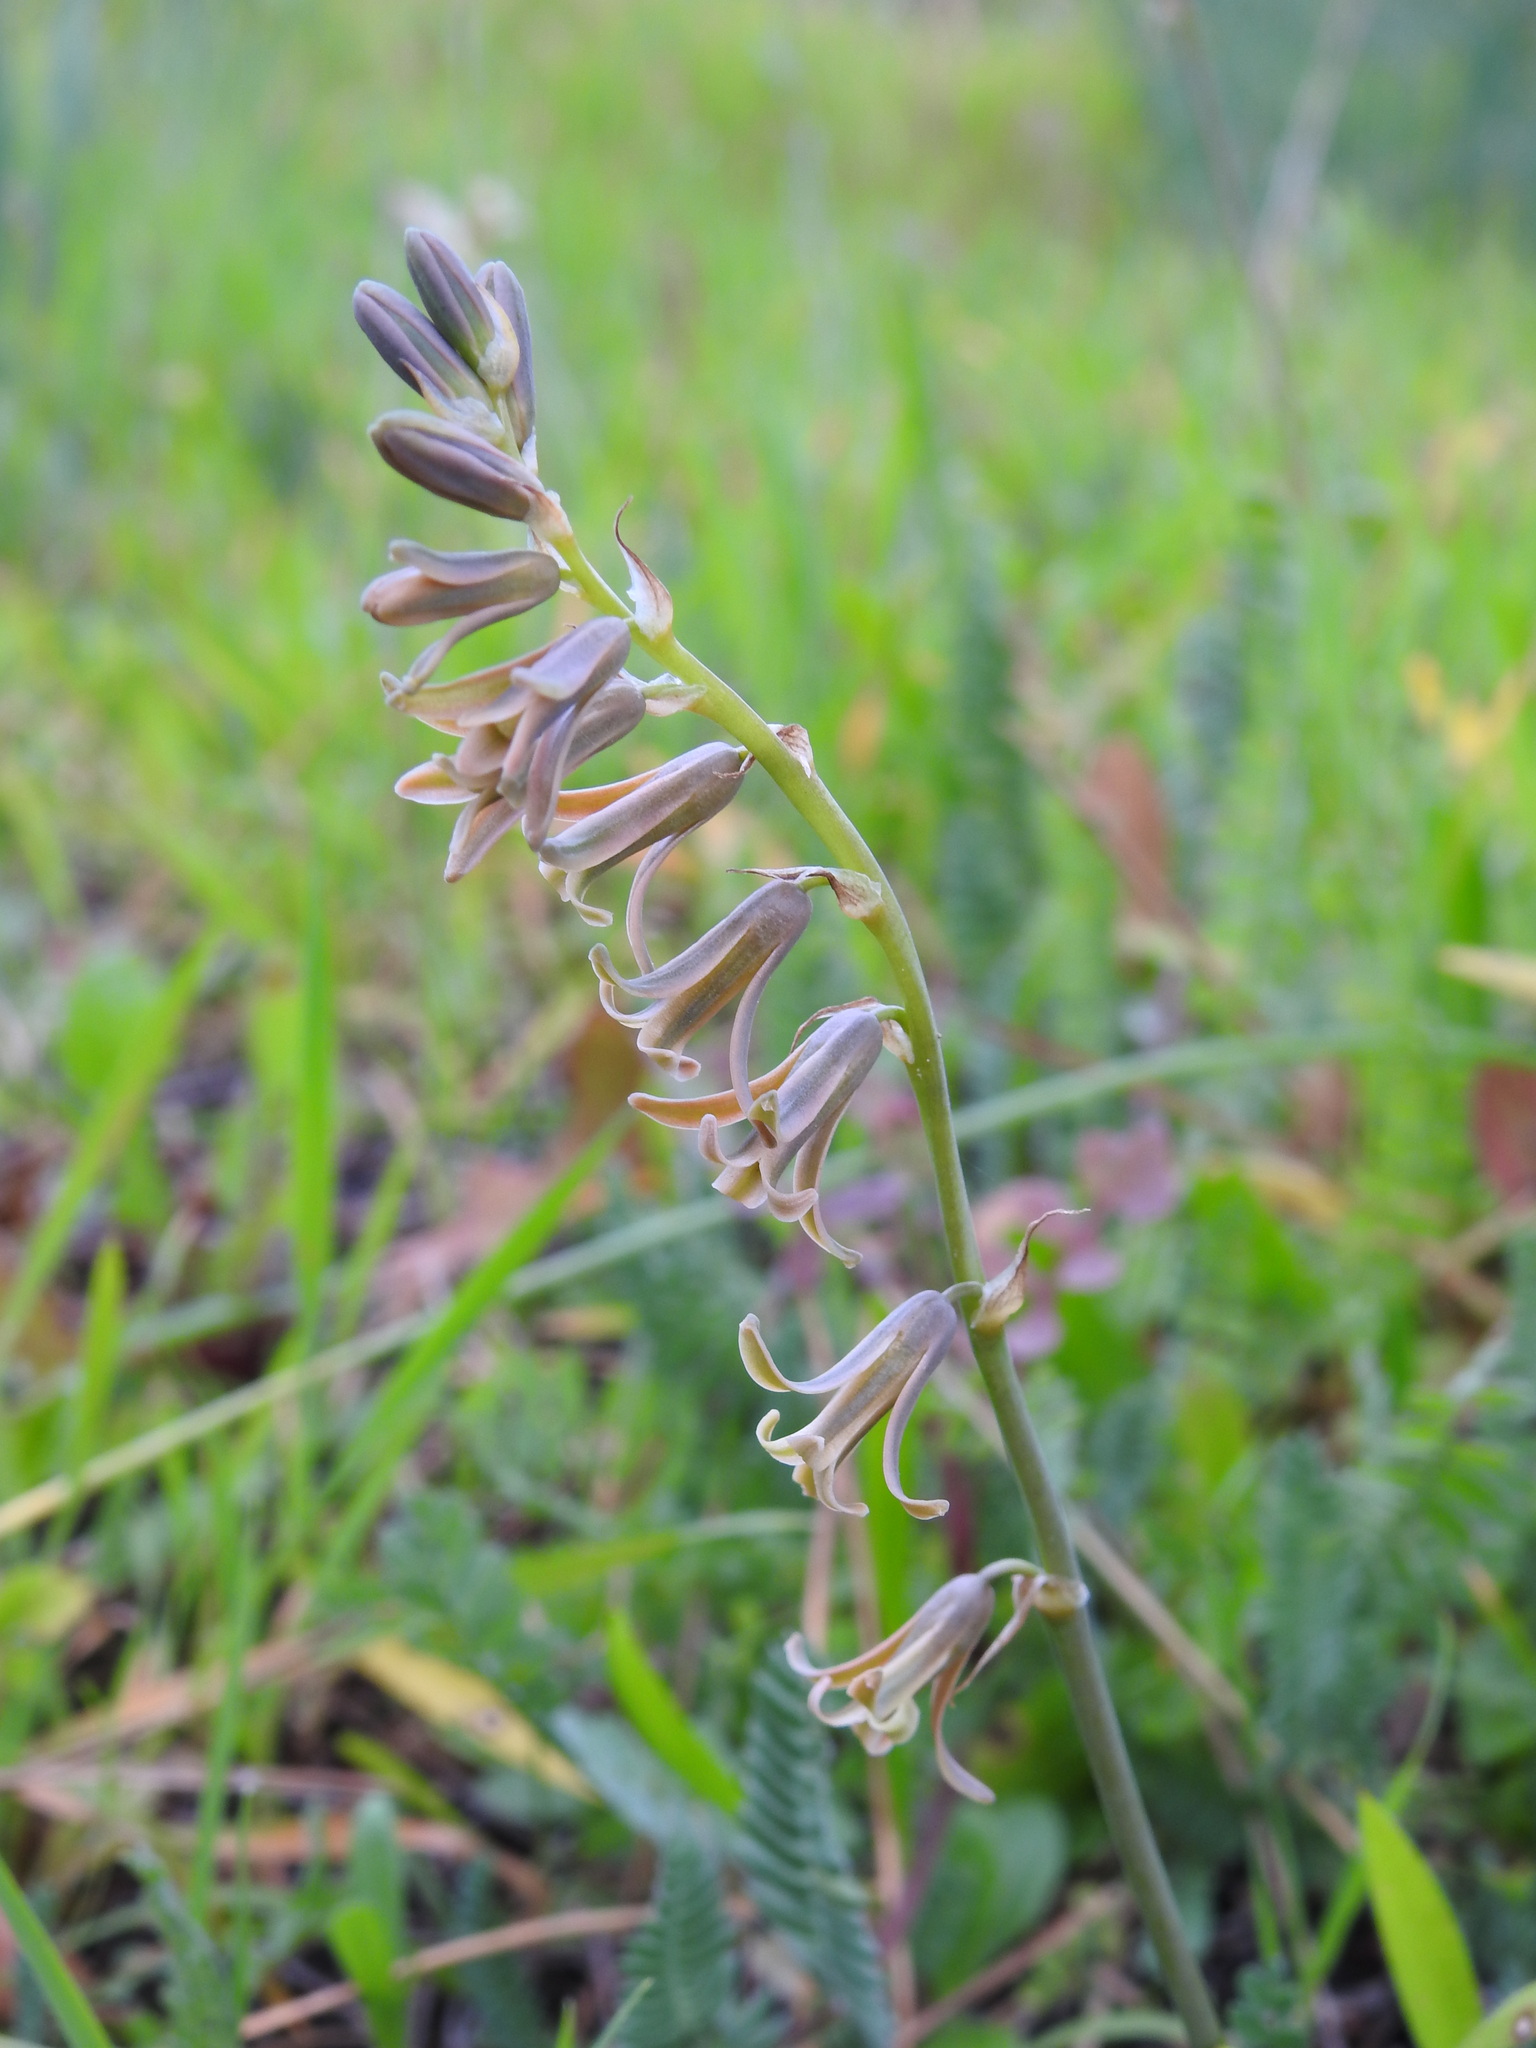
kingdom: Plantae
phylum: Tracheophyta
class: Liliopsida
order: Asparagales
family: Asparagaceae
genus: Dipcadi
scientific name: Dipcadi serotinum
